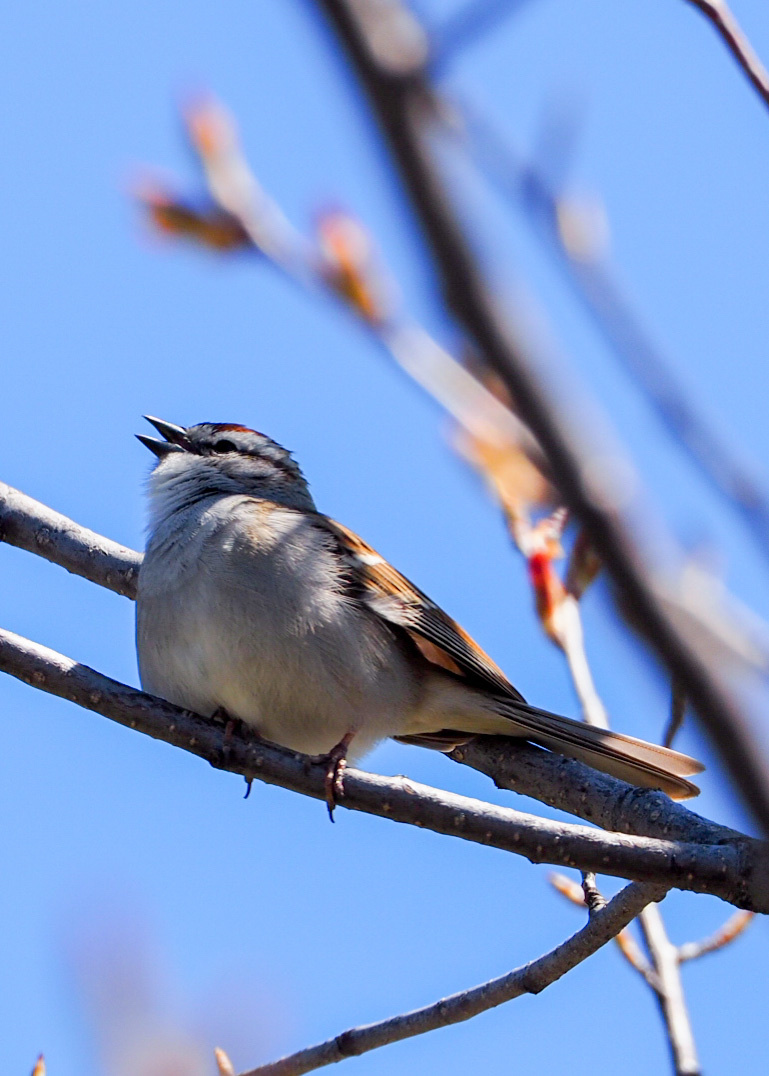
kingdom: Animalia
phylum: Chordata
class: Aves
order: Passeriformes
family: Passerellidae
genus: Spizella
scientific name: Spizella passerina
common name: Chipping sparrow
